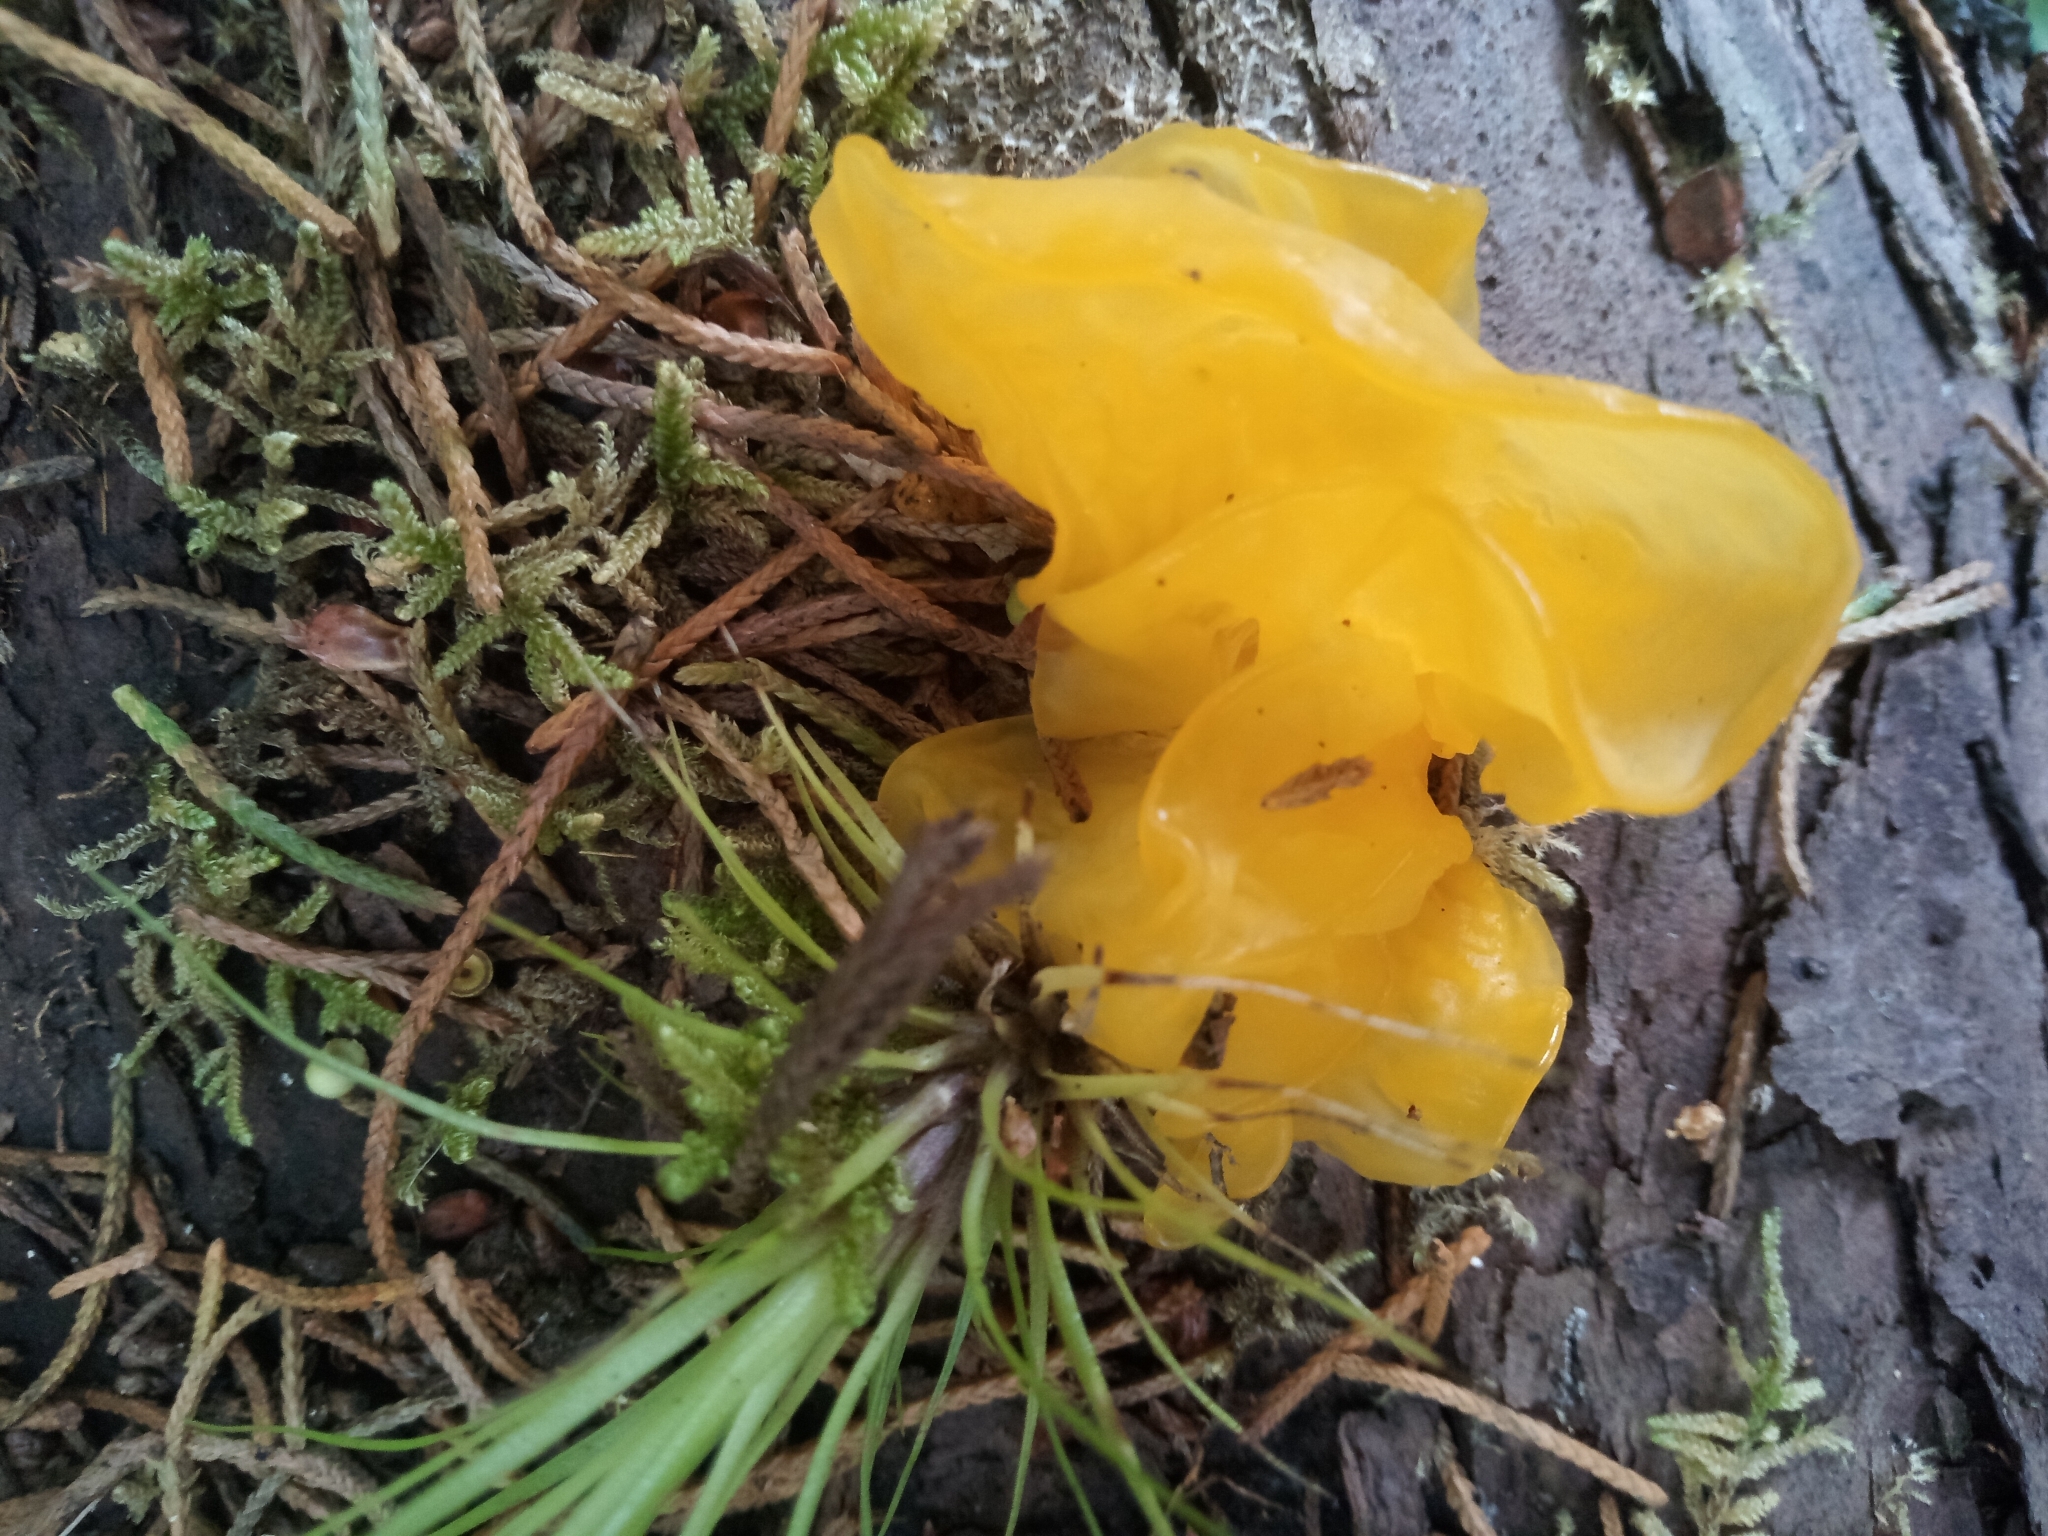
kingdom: Fungi
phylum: Basidiomycota
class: Tremellomycetes
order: Tremellales
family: Tremellaceae
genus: Tremella
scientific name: Tremella mesenterica
